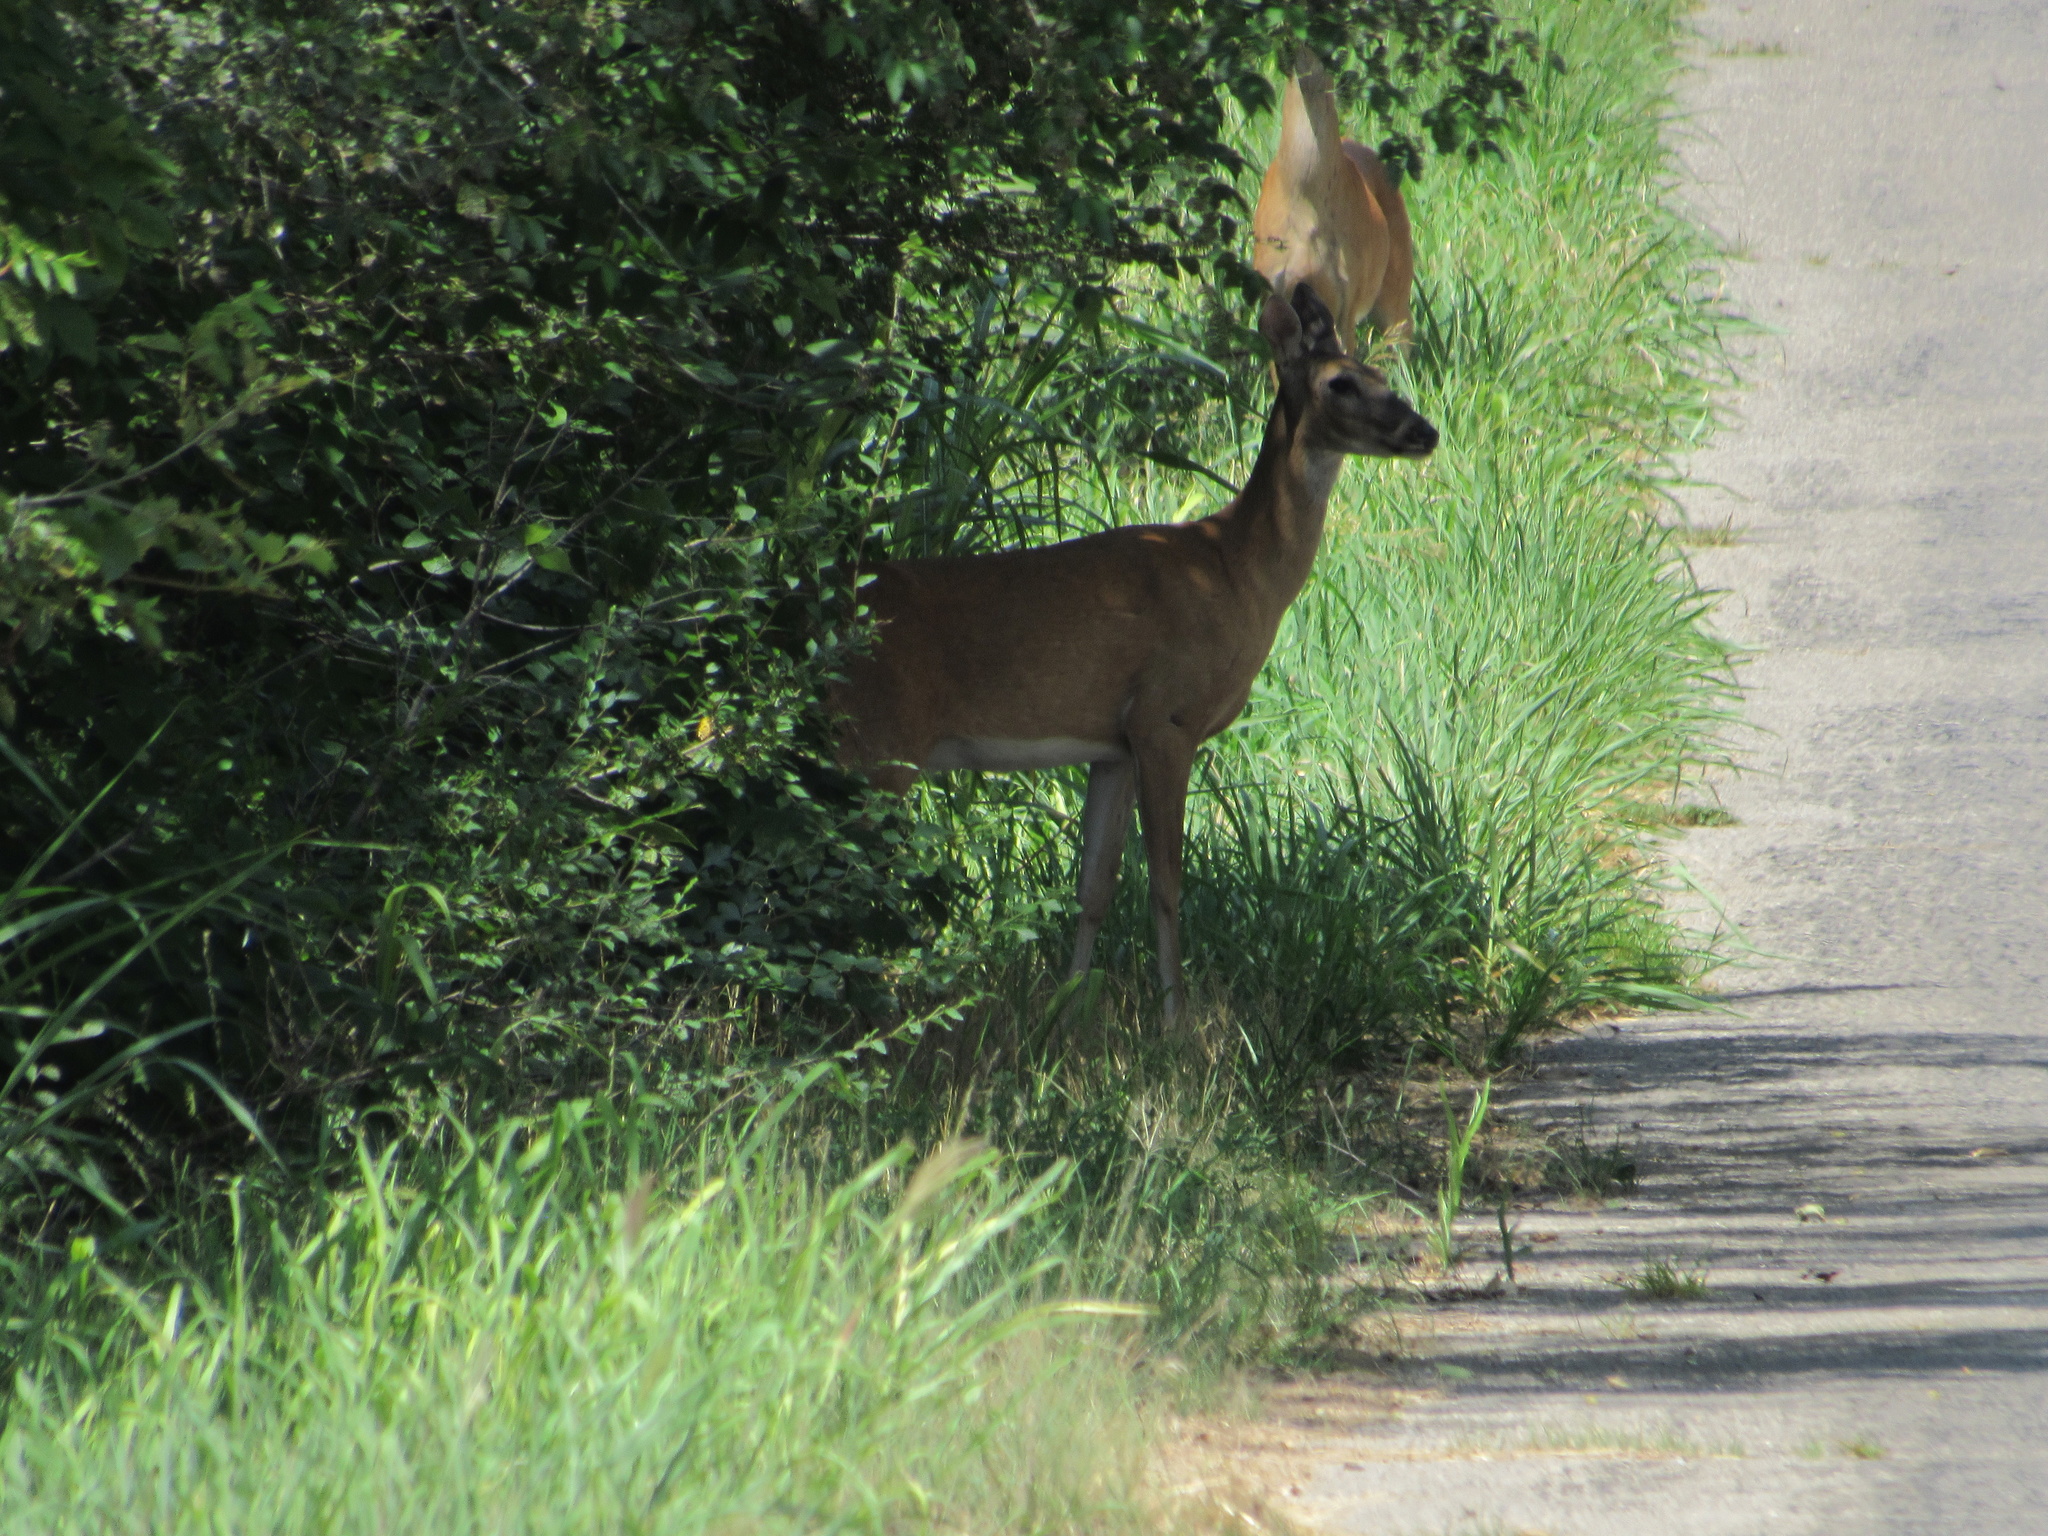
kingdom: Animalia
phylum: Chordata
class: Mammalia
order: Artiodactyla
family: Cervidae
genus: Odocoileus
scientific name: Odocoileus virginianus
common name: White-tailed deer
